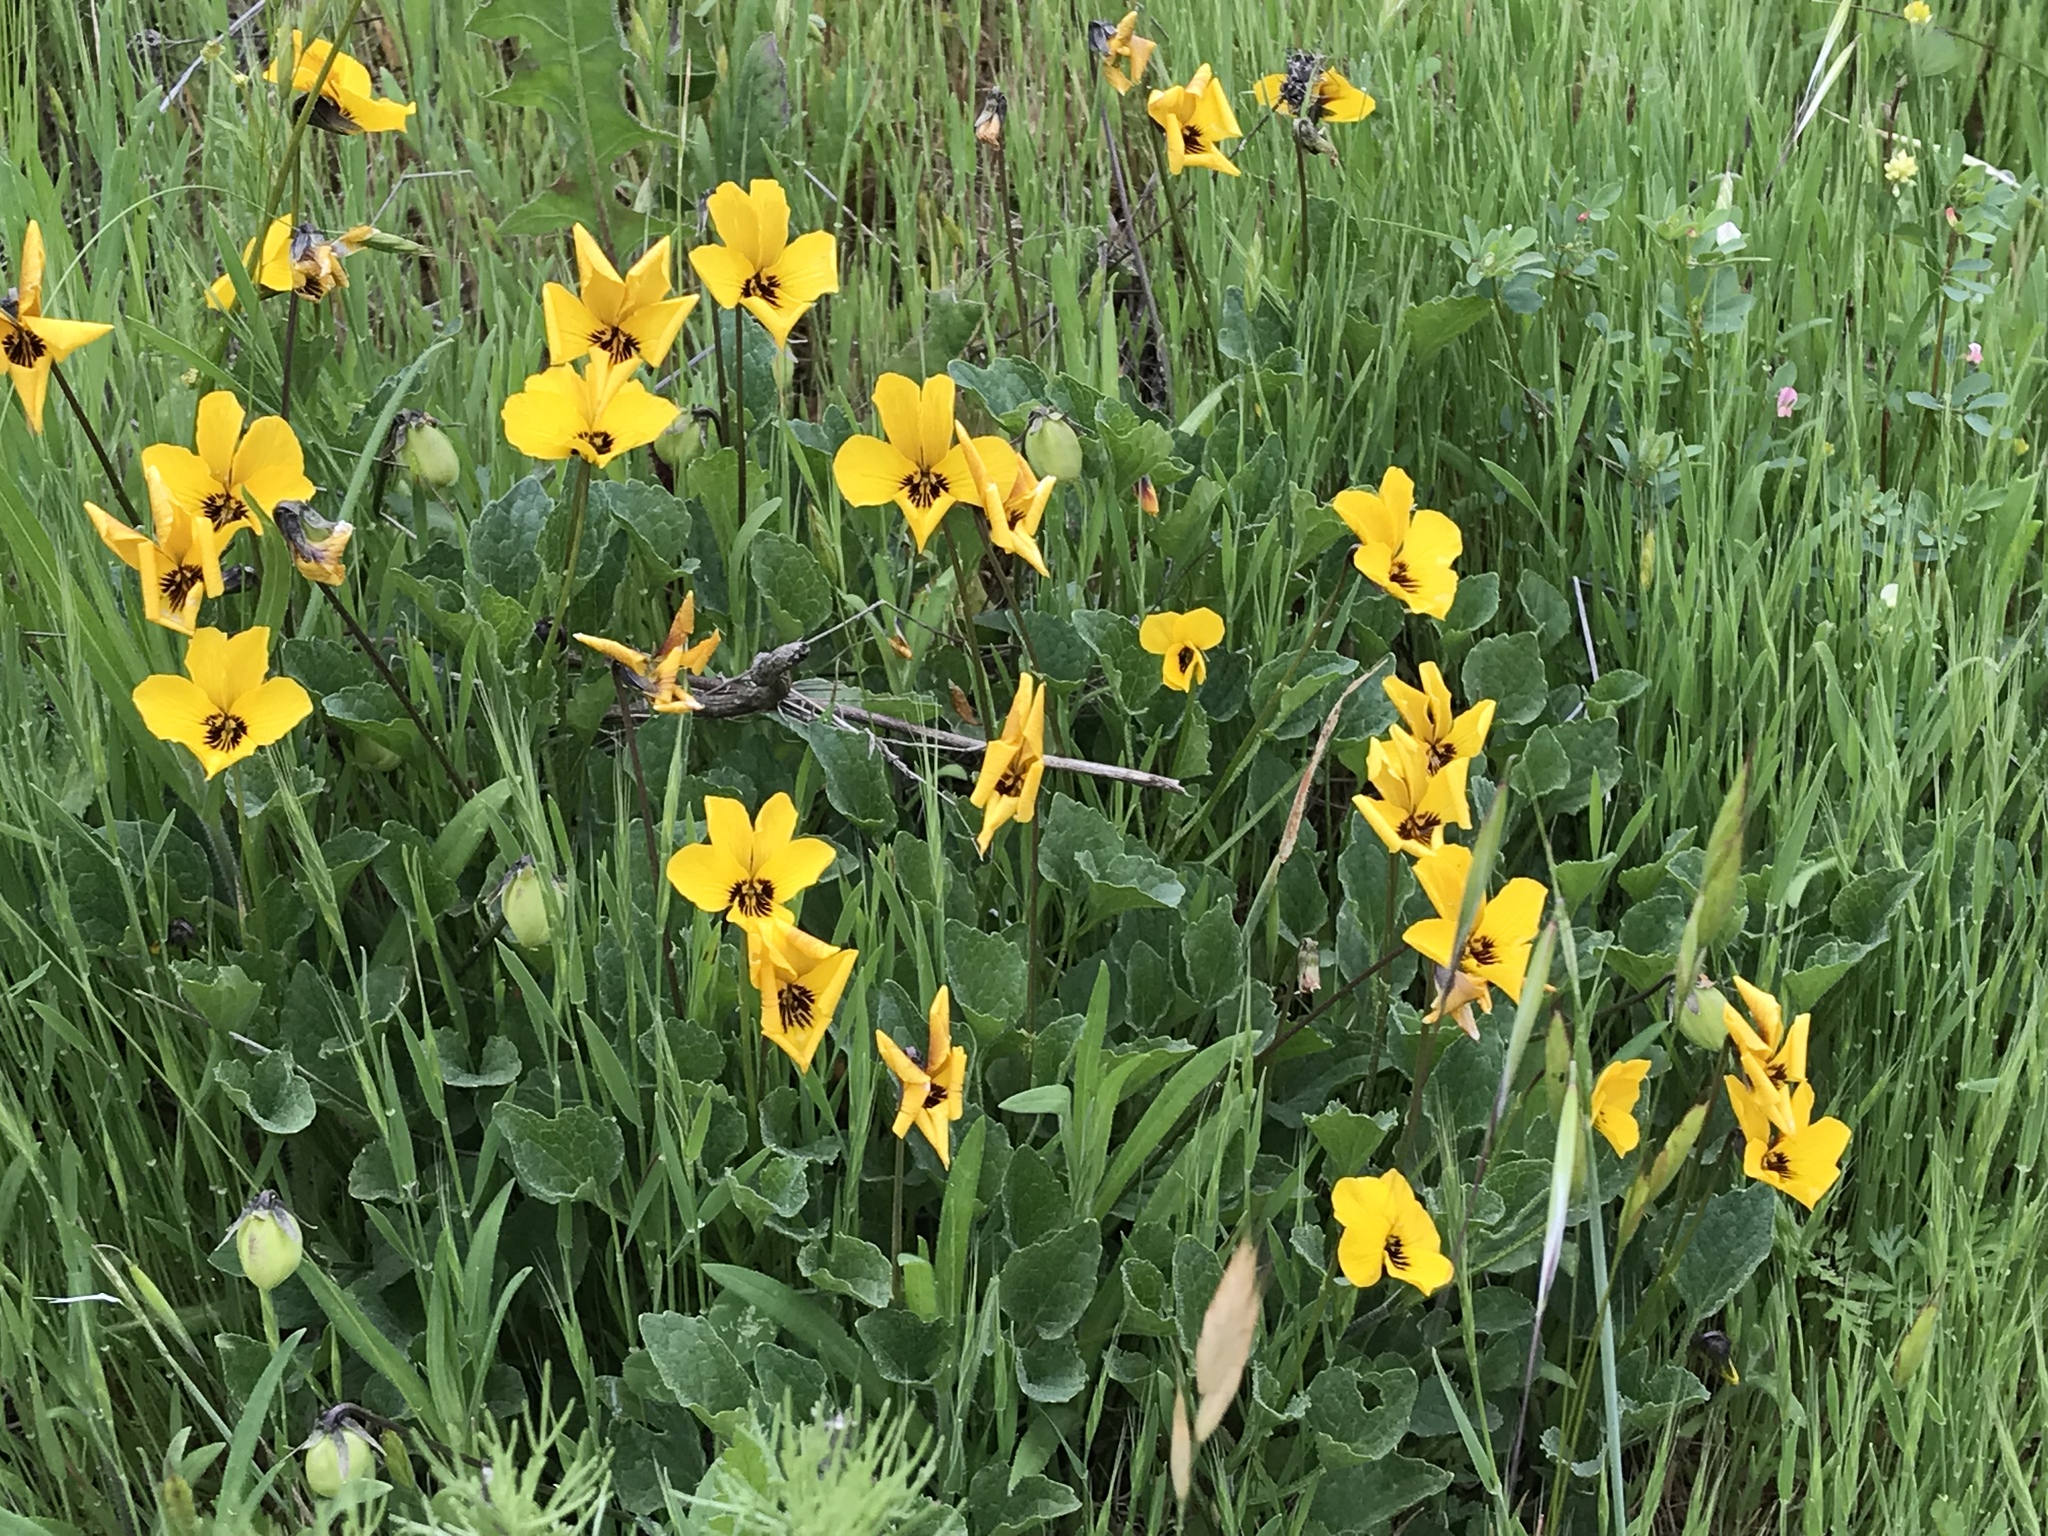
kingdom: Plantae
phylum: Tracheophyta
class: Magnoliopsida
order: Malpighiales
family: Violaceae
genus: Viola
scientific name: Viola pedunculata
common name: California golden violet
